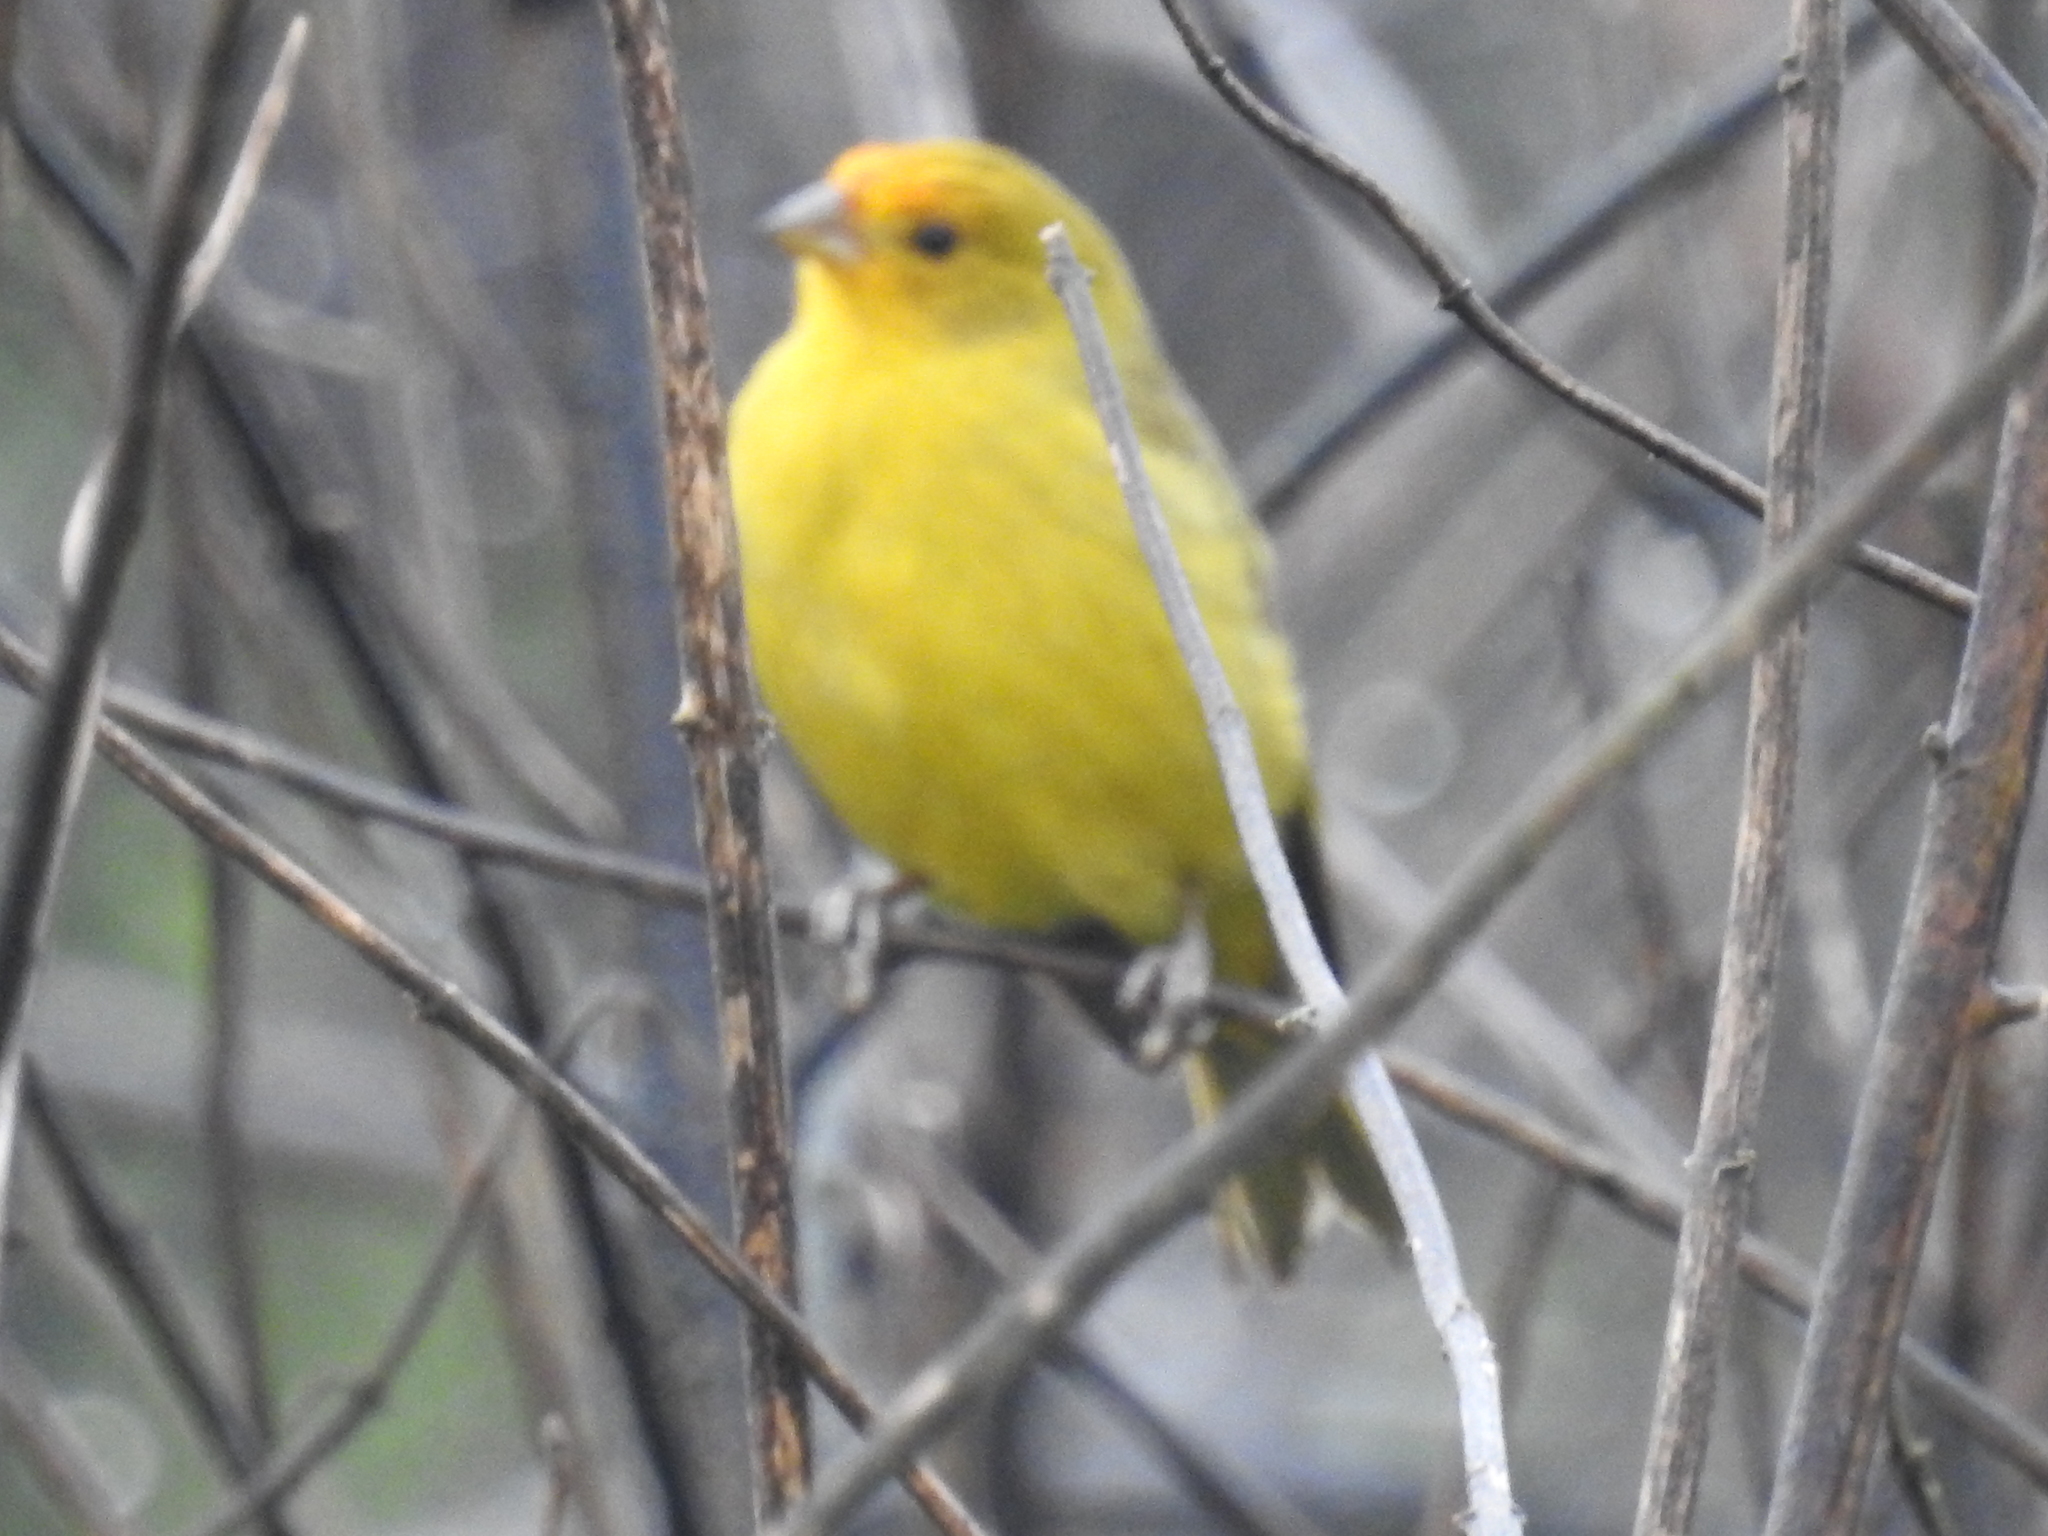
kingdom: Animalia
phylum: Chordata
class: Aves
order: Passeriformes
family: Thraupidae
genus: Sicalis
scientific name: Sicalis flaveola
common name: Saffron finch
